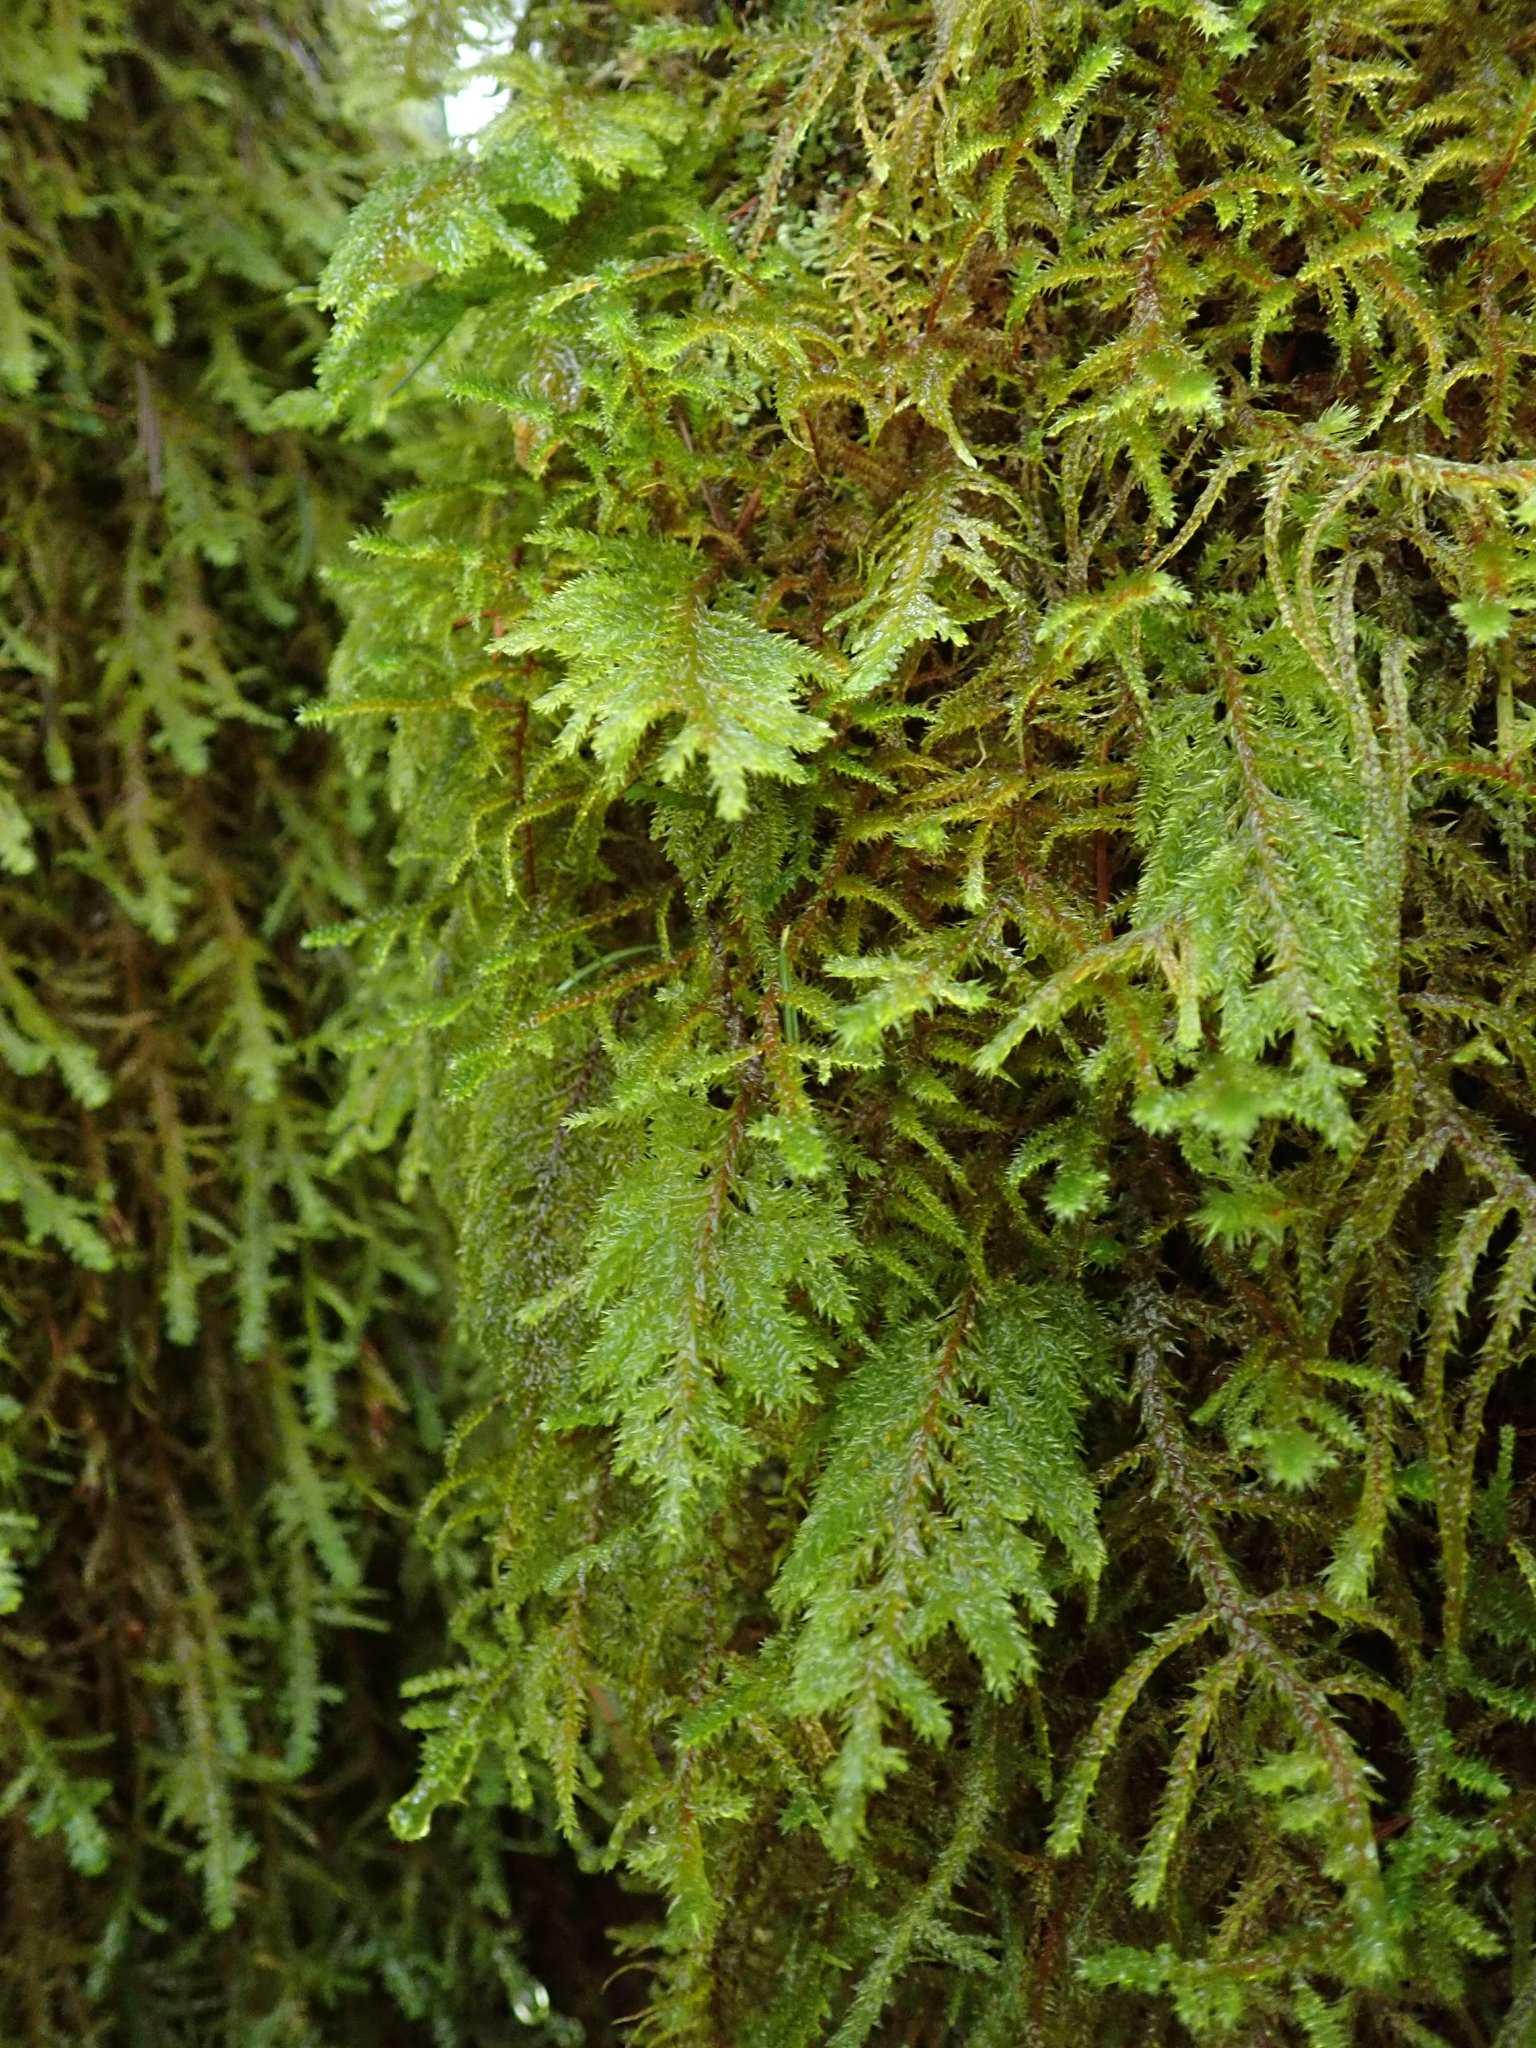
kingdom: Plantae
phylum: Bryophyta
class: Bryopsida
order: Hypnales
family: Cryphaeaceae
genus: Dendroalsia
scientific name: Dendroalsia abietina
